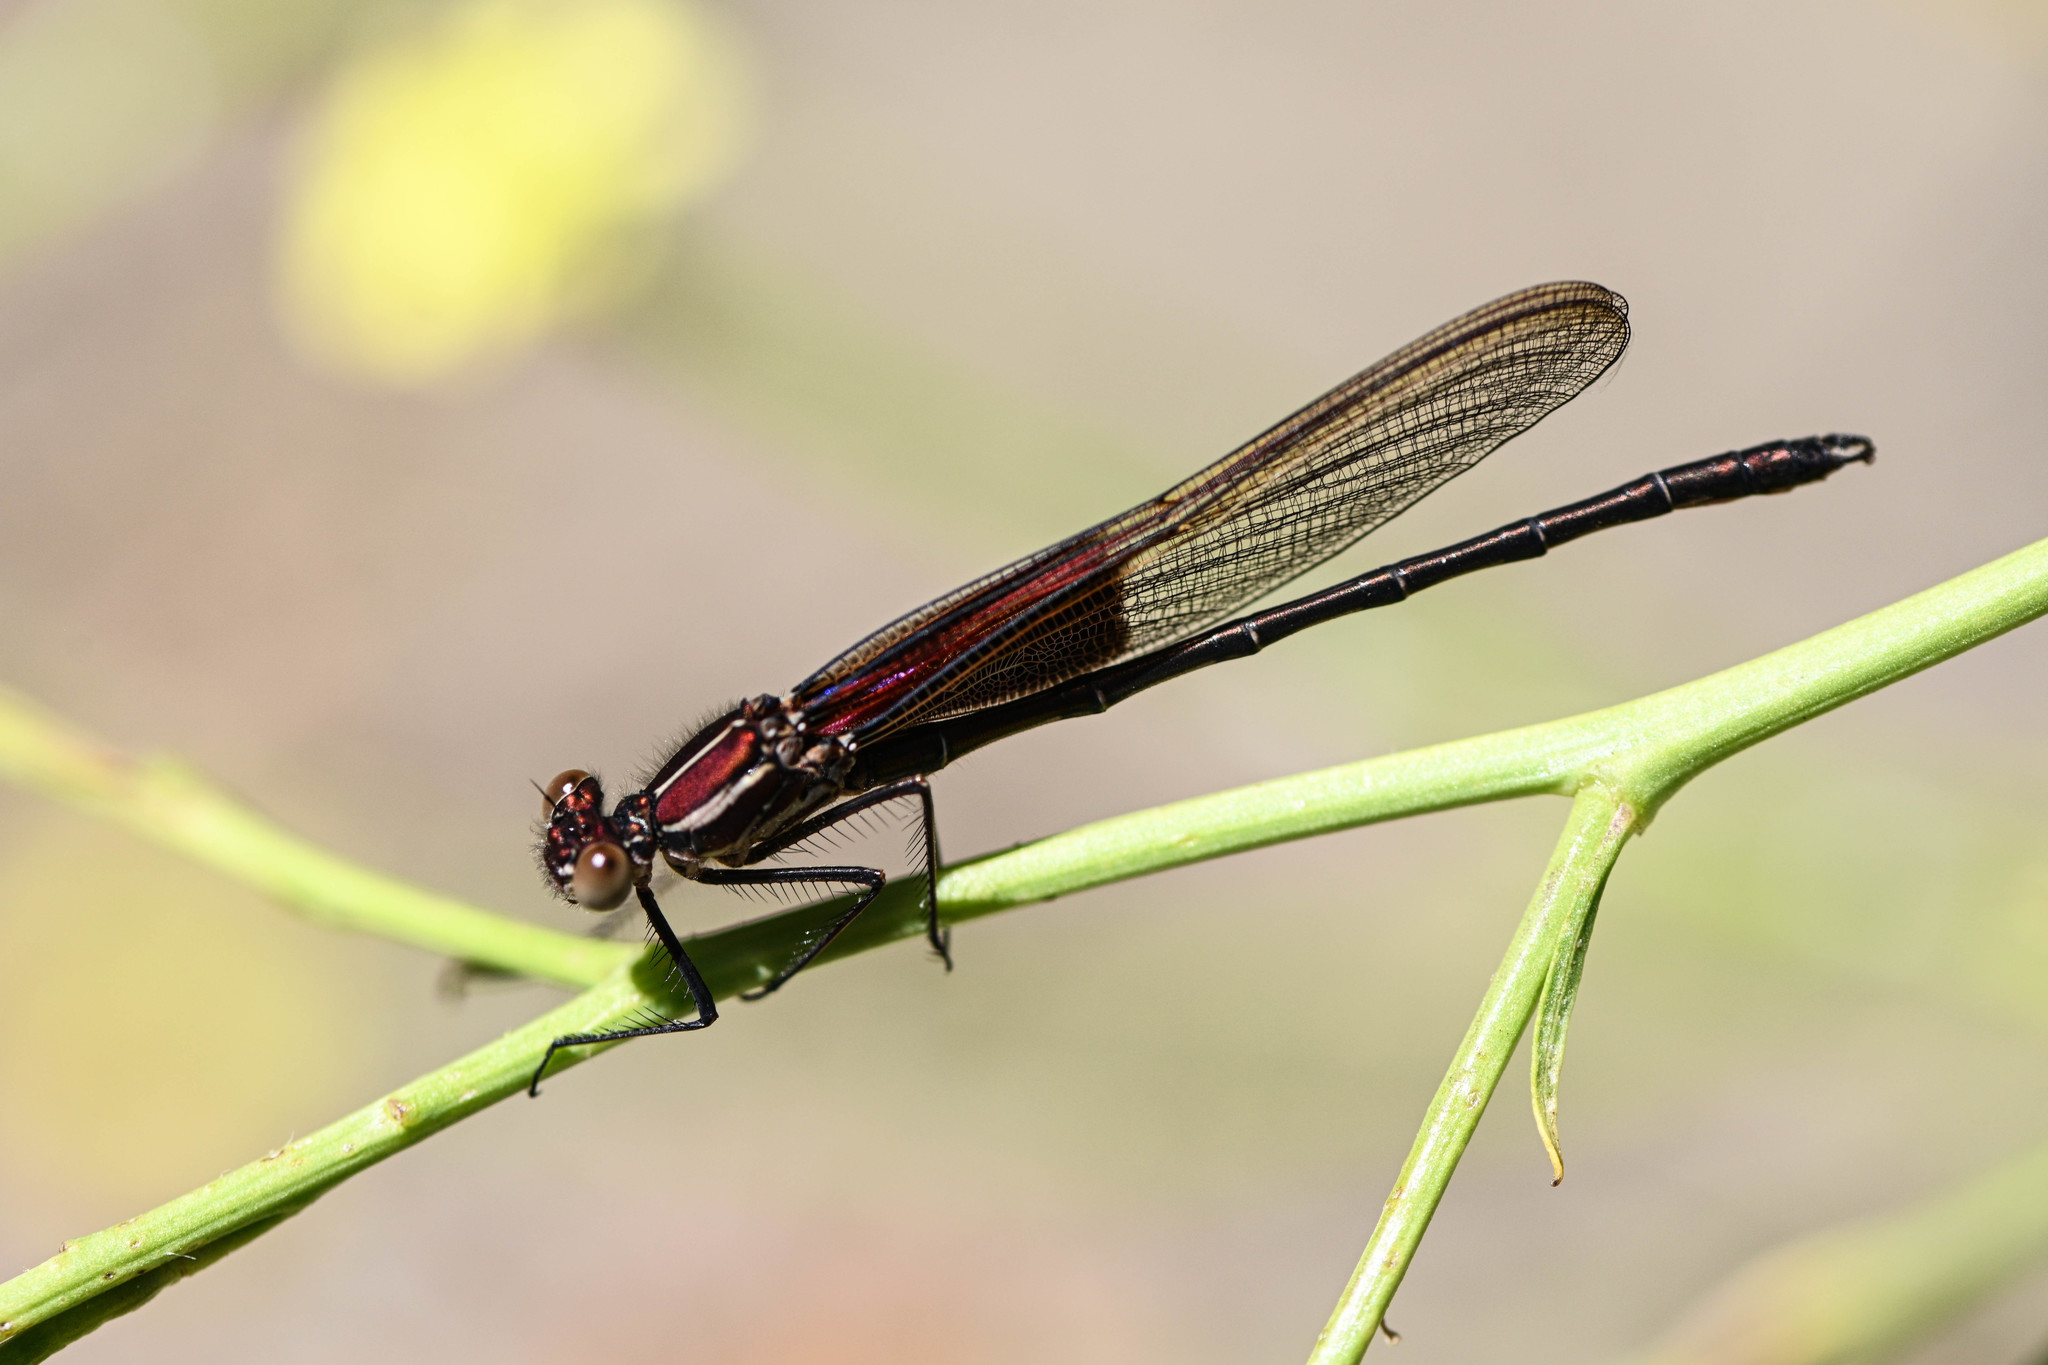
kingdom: Animalia
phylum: Arthropoda
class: Insecta
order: Odonata
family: Calopterygidae
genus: Hetaerina
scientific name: Hetaerina americana
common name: American rubyspot
